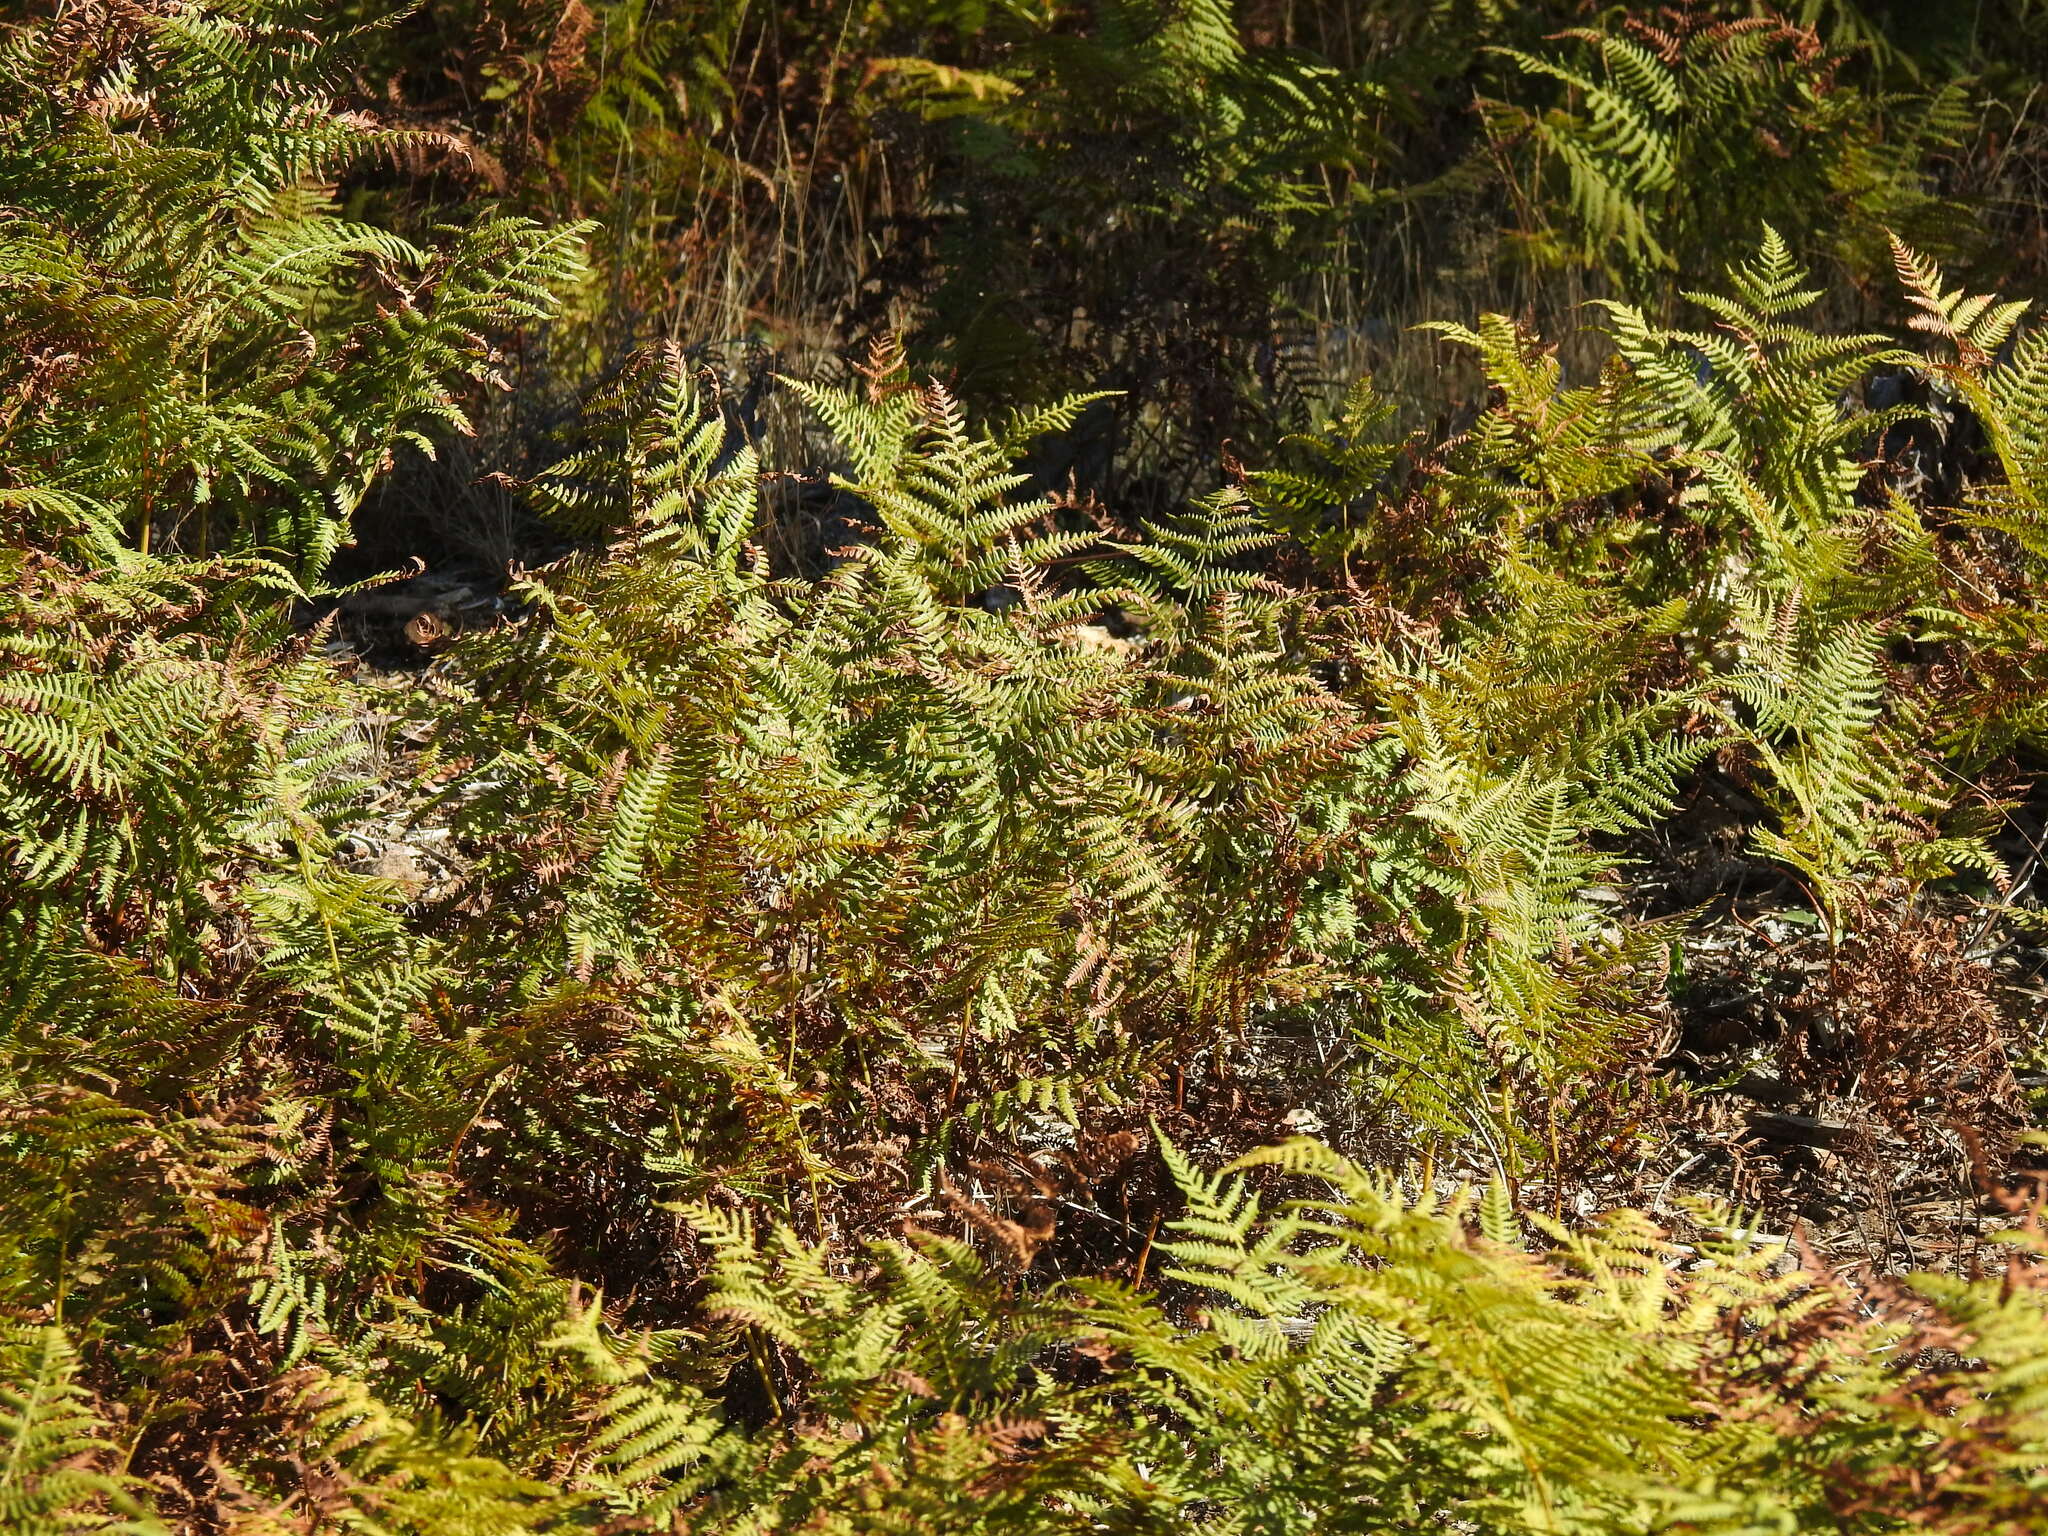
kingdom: Plantae
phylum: Tracheophyta
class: Polypodiopsida
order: Polypodiales
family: Dennstaedtiaceae
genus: Pteridium
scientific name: Pteridium aquilinum
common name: Bracken
